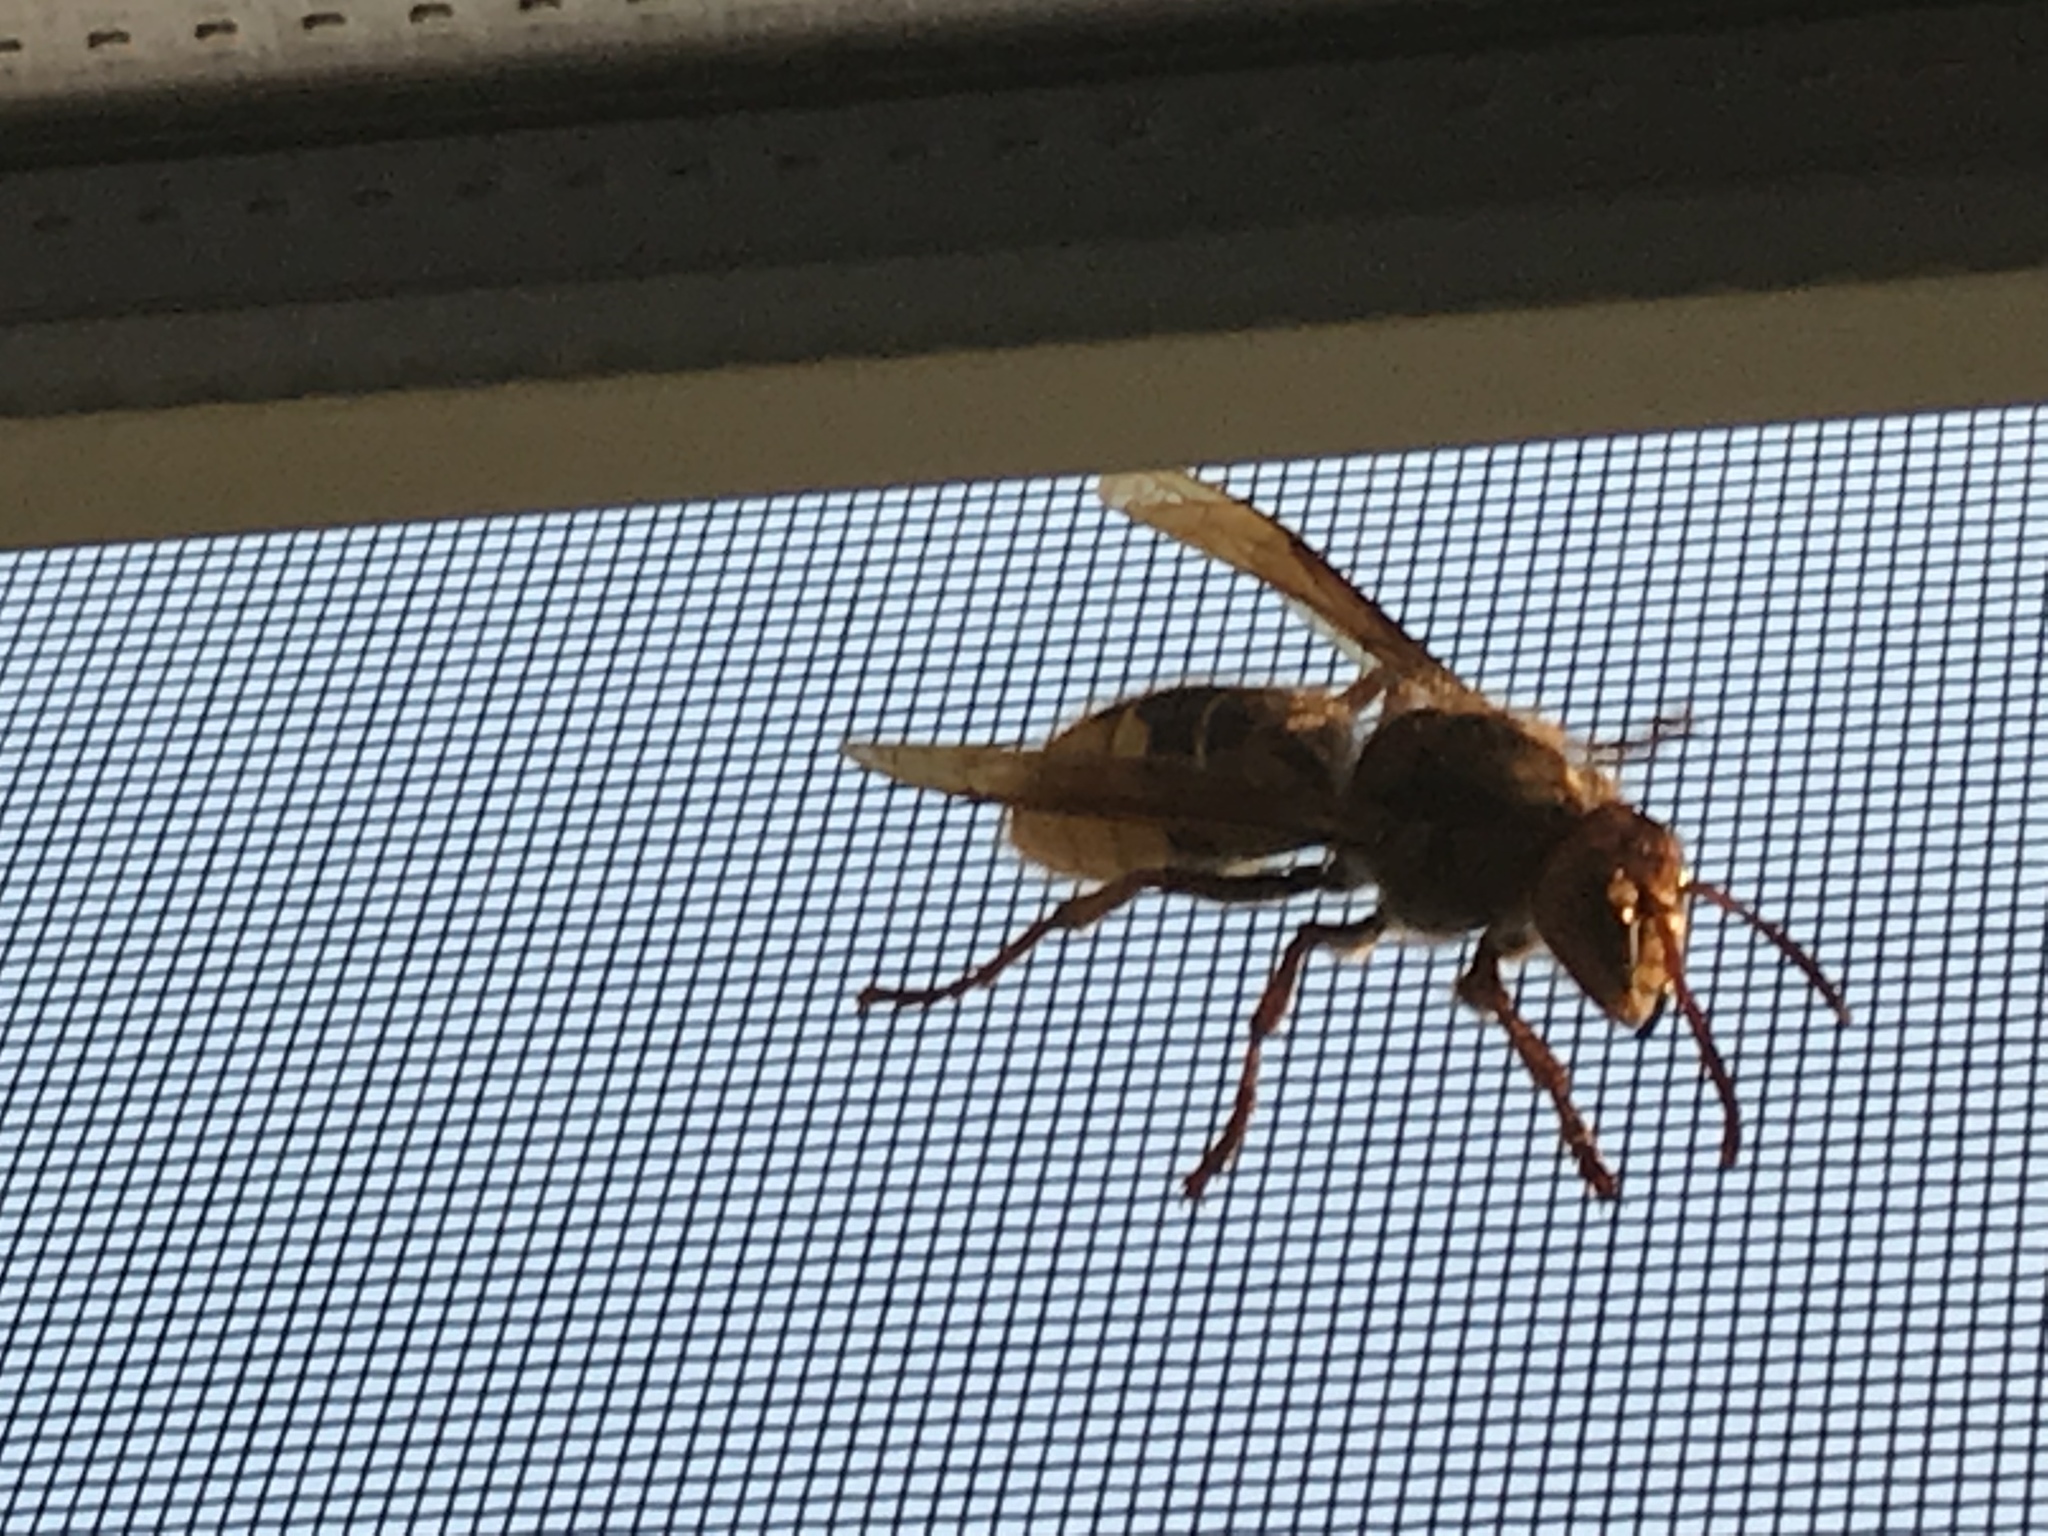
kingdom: Animalia
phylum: Arthropoda
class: Insecta
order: Hymenoptera
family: Vespidae
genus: Vespa
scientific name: Vespa crabro
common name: Hornet
